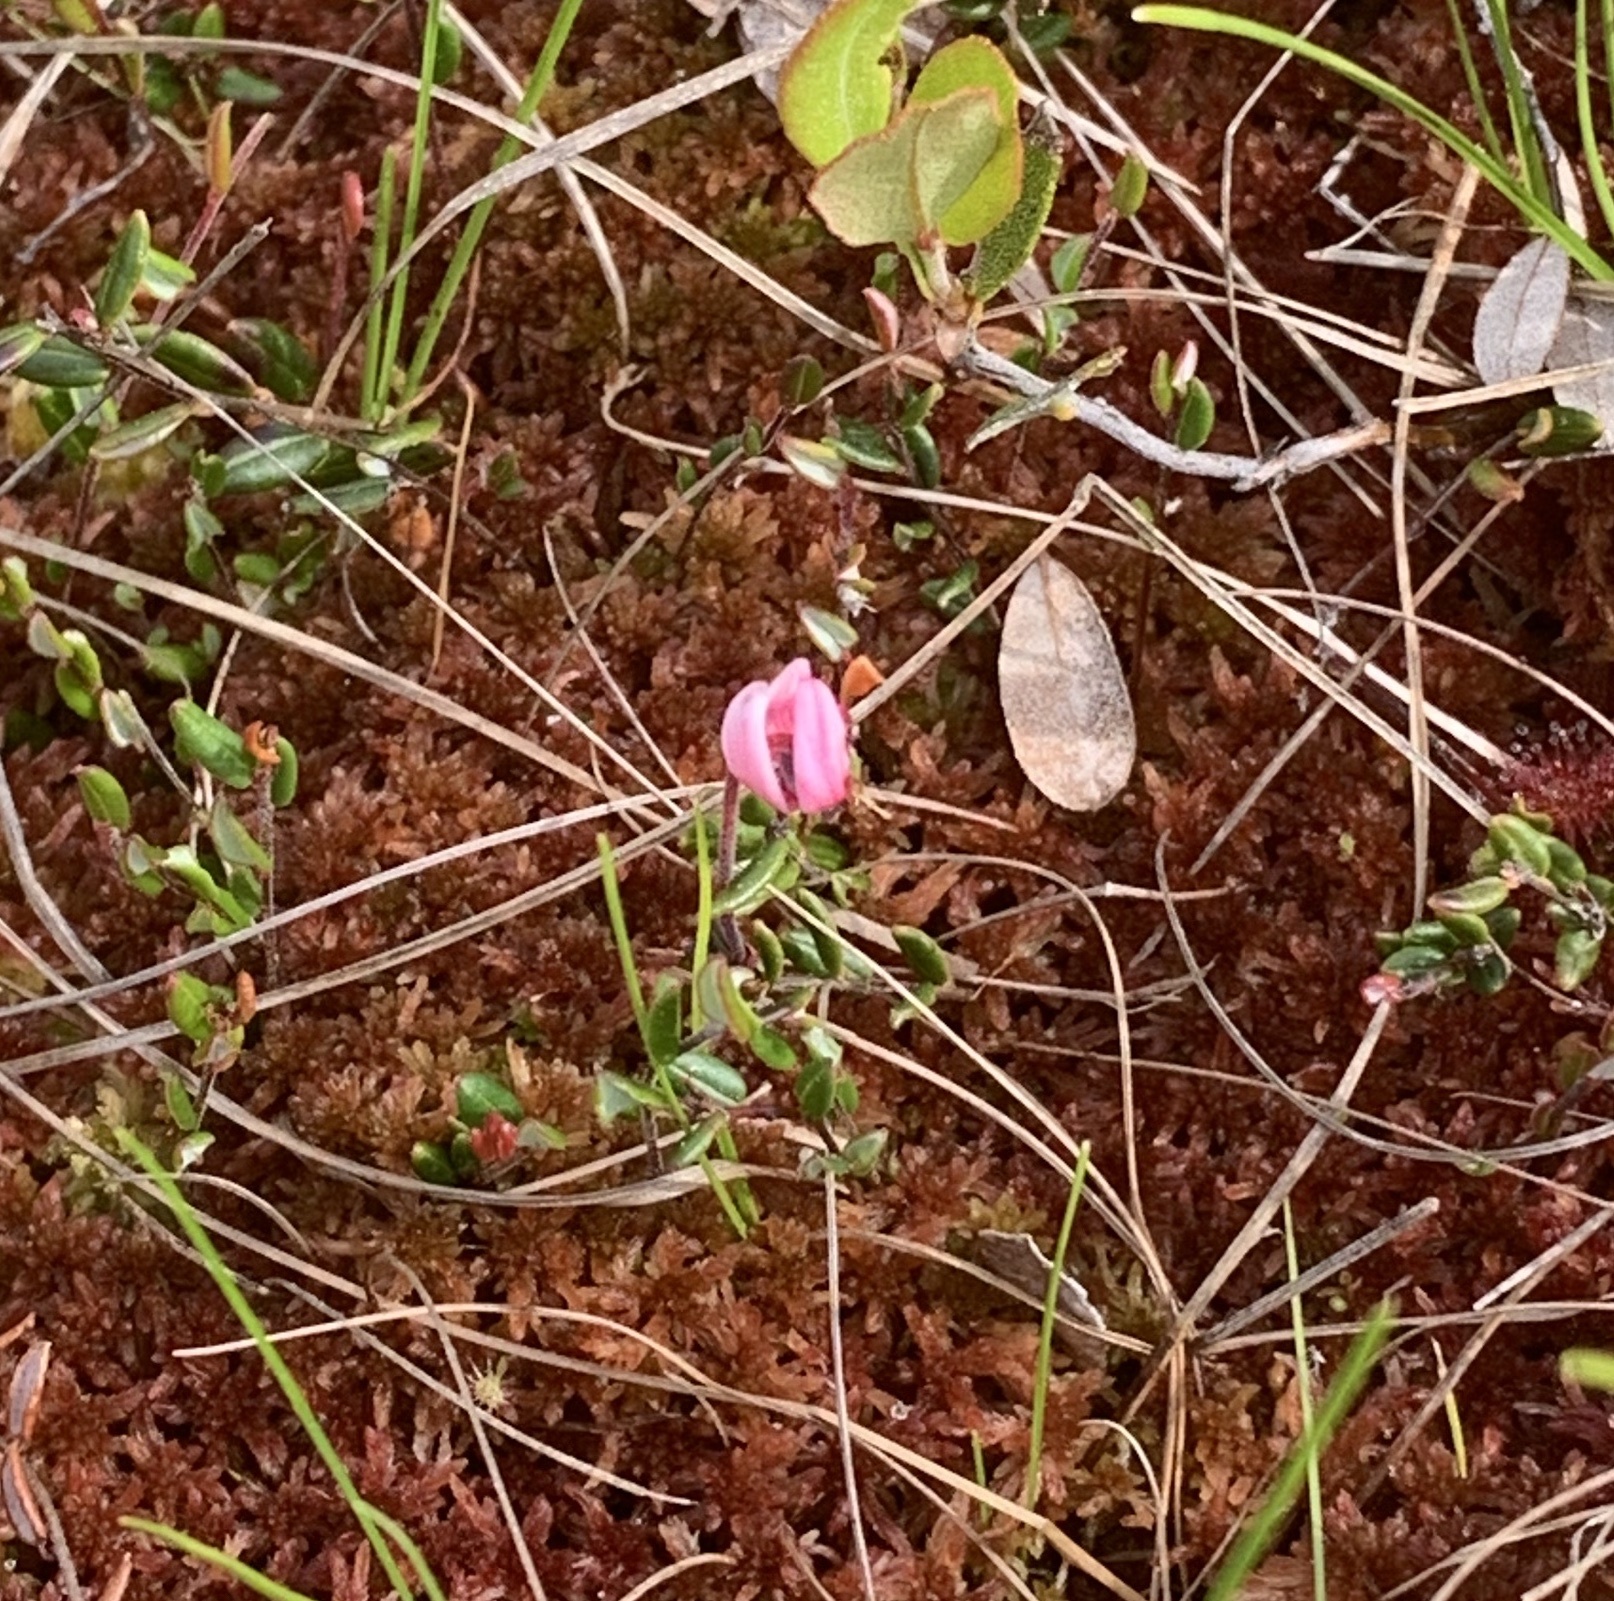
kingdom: Plantae
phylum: Tracheophyta
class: Magnoliopsida
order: Ericales
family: Ericaceae
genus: Vaccinium
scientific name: Vaccinium oxycoccos
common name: Cranberry
